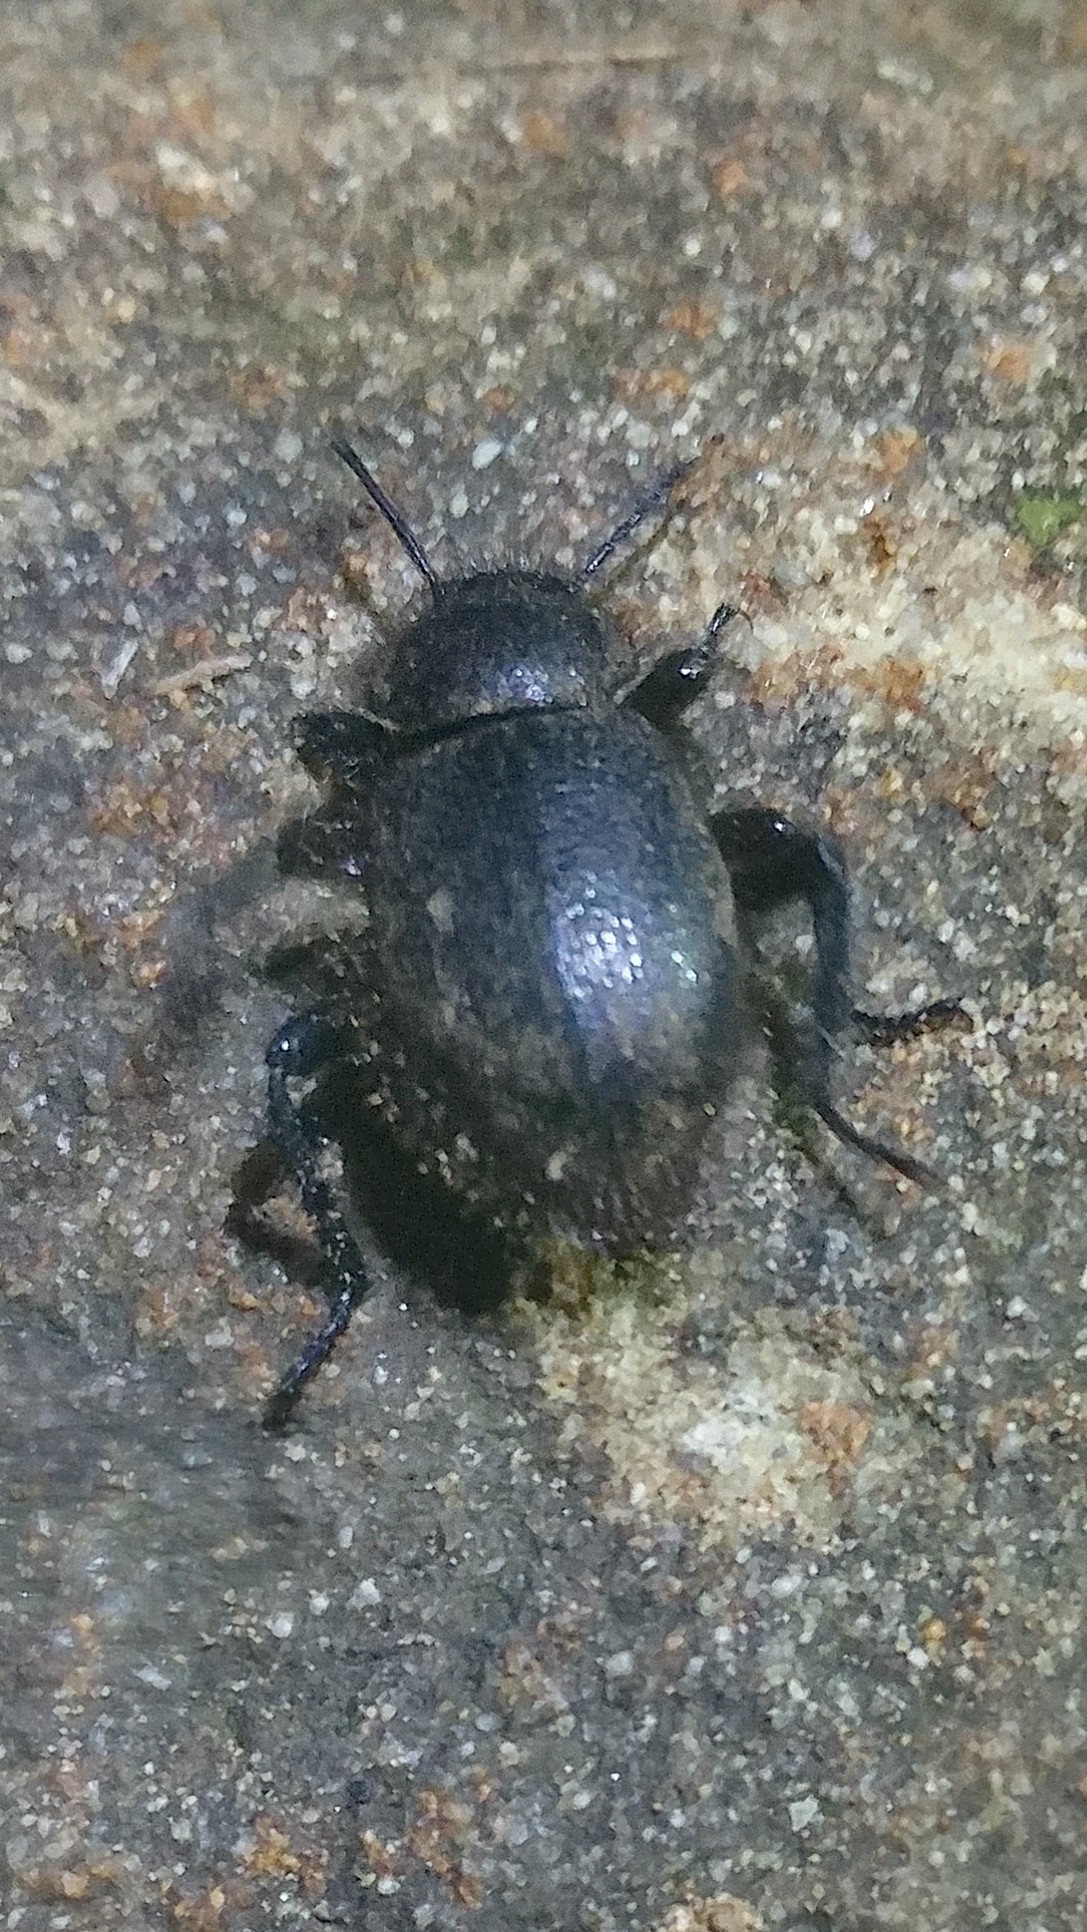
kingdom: Animalia
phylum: Arthropoda
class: Insecta
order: Coleoptera
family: Tenebrionidae
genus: Eleodes
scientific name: Eleodes osculans
